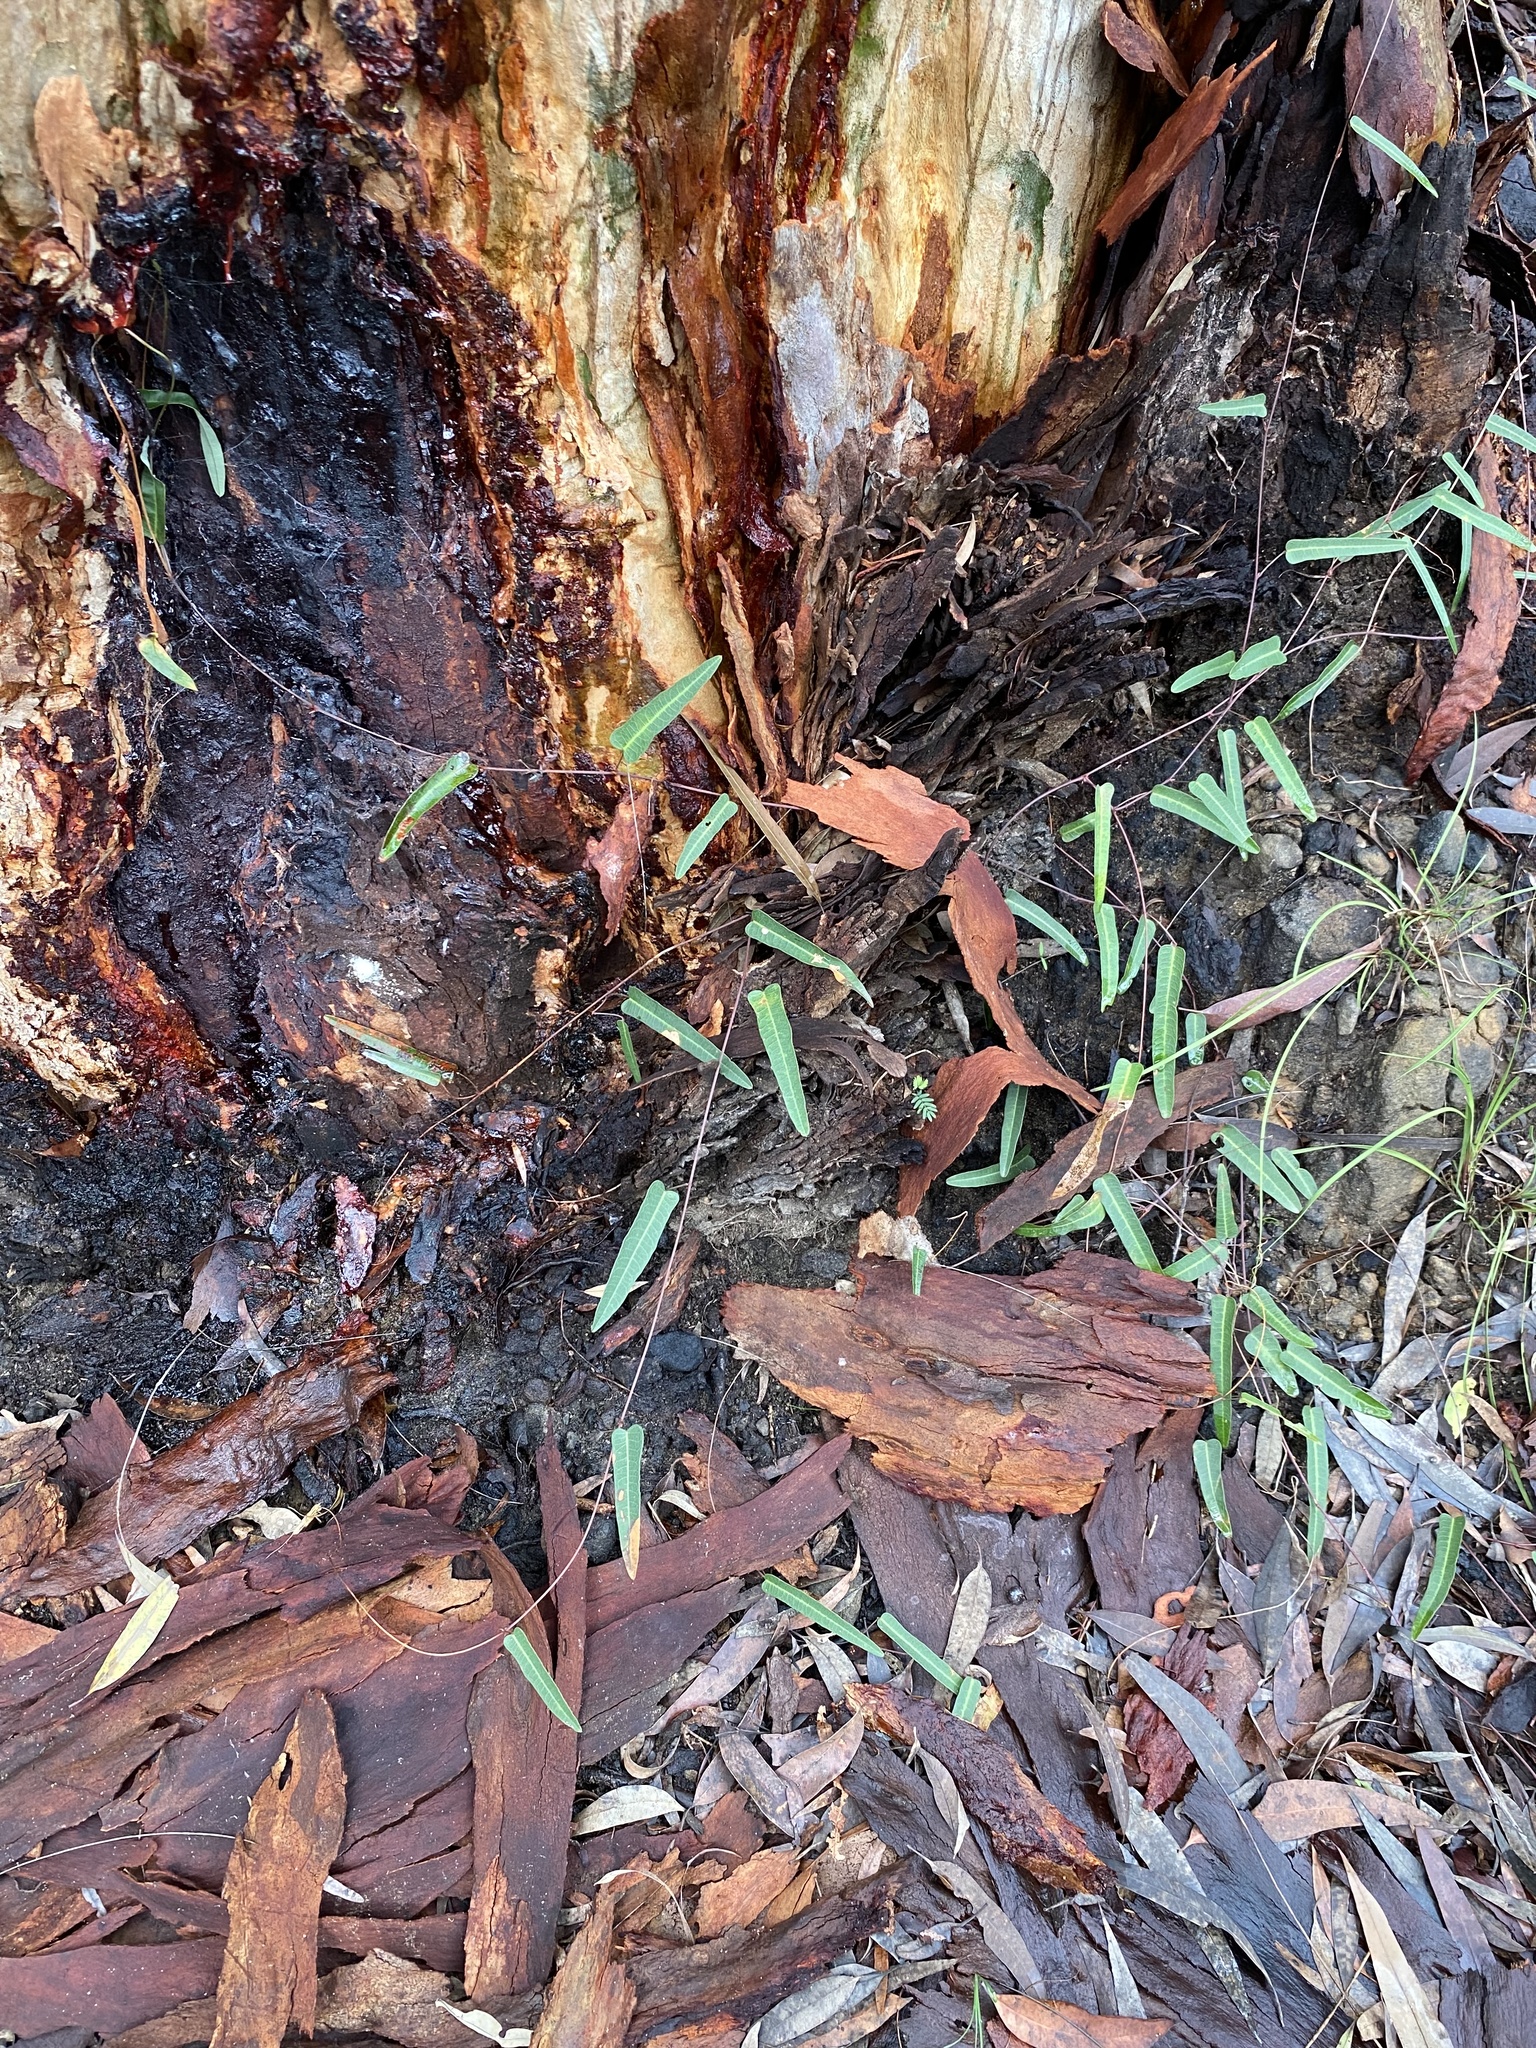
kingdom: Plantae
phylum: Tracheophyta
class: Magnoliopsida
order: Fabales
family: Fabaceae
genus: Hardenbergia
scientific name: Hardenbergia violacea
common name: Coral-pea
